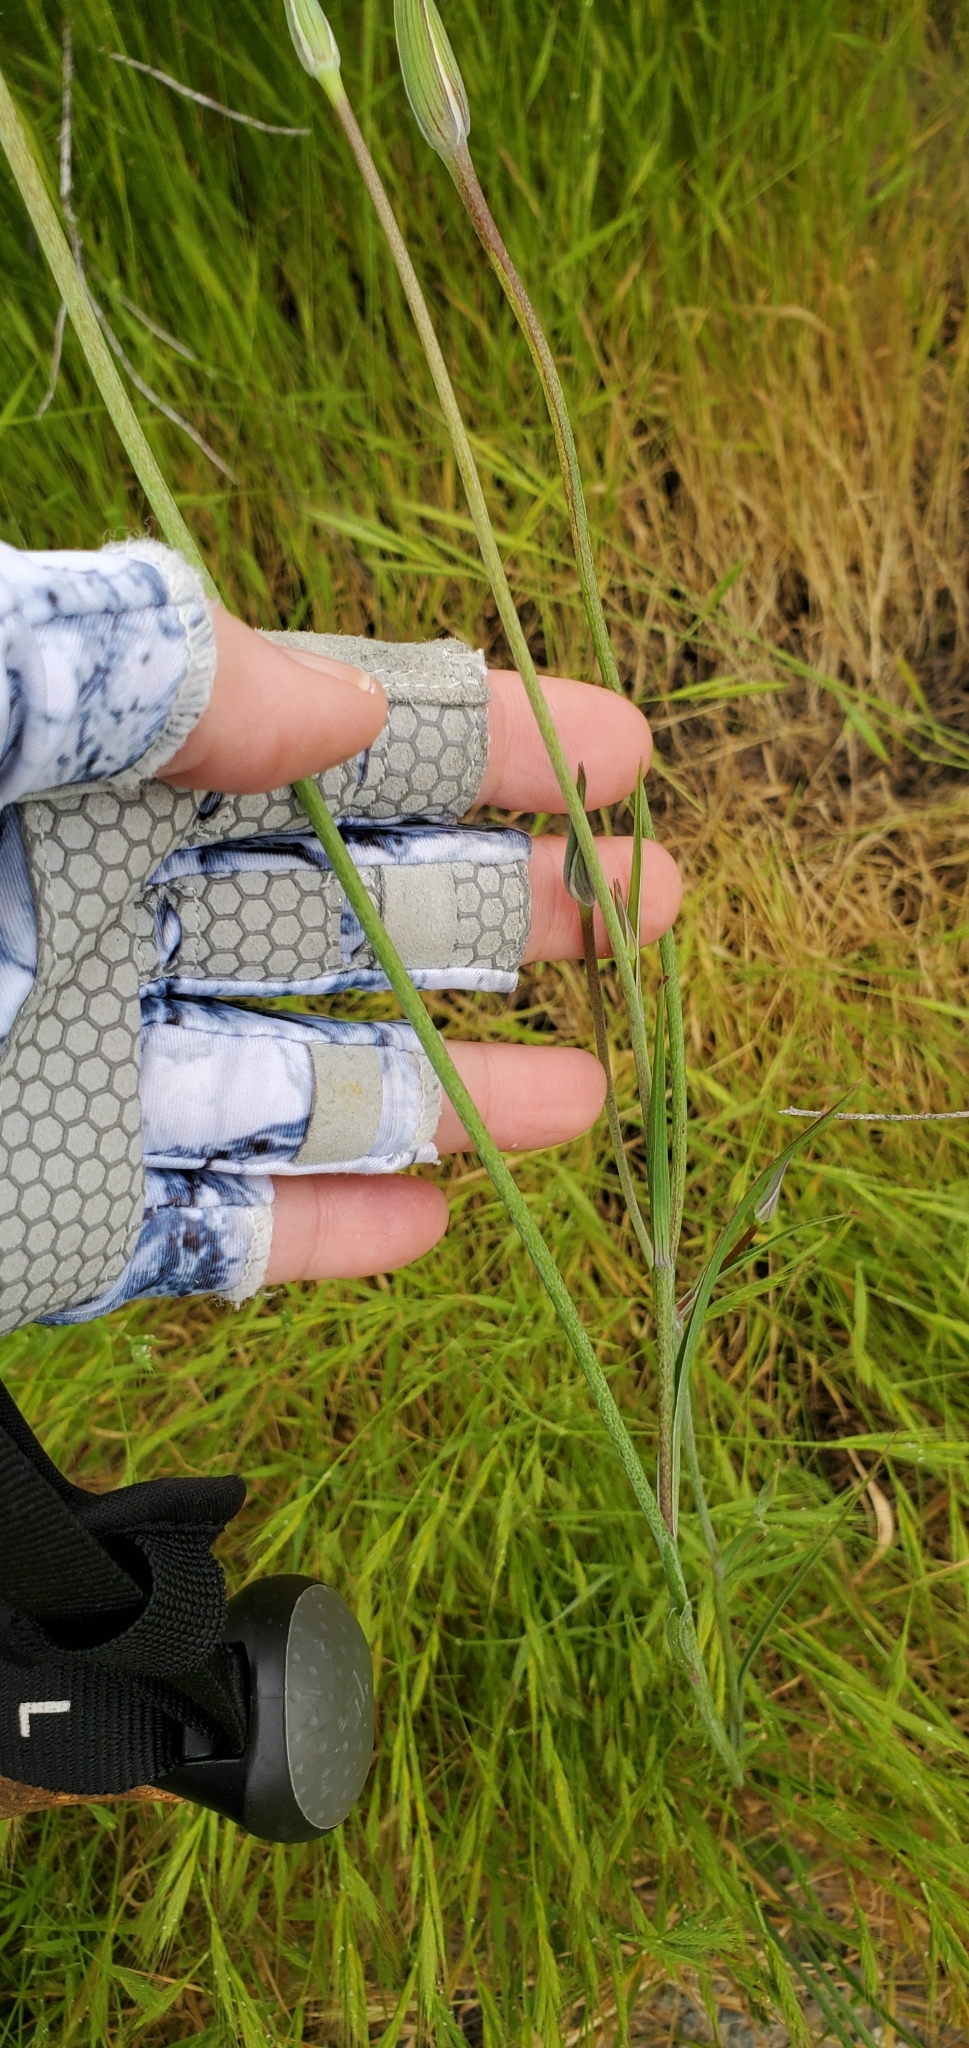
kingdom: Plantae
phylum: Tracheophyta
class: Liliopsida
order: Liliales
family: Liliaceae
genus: Calochortus
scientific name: Calochortus splendens
